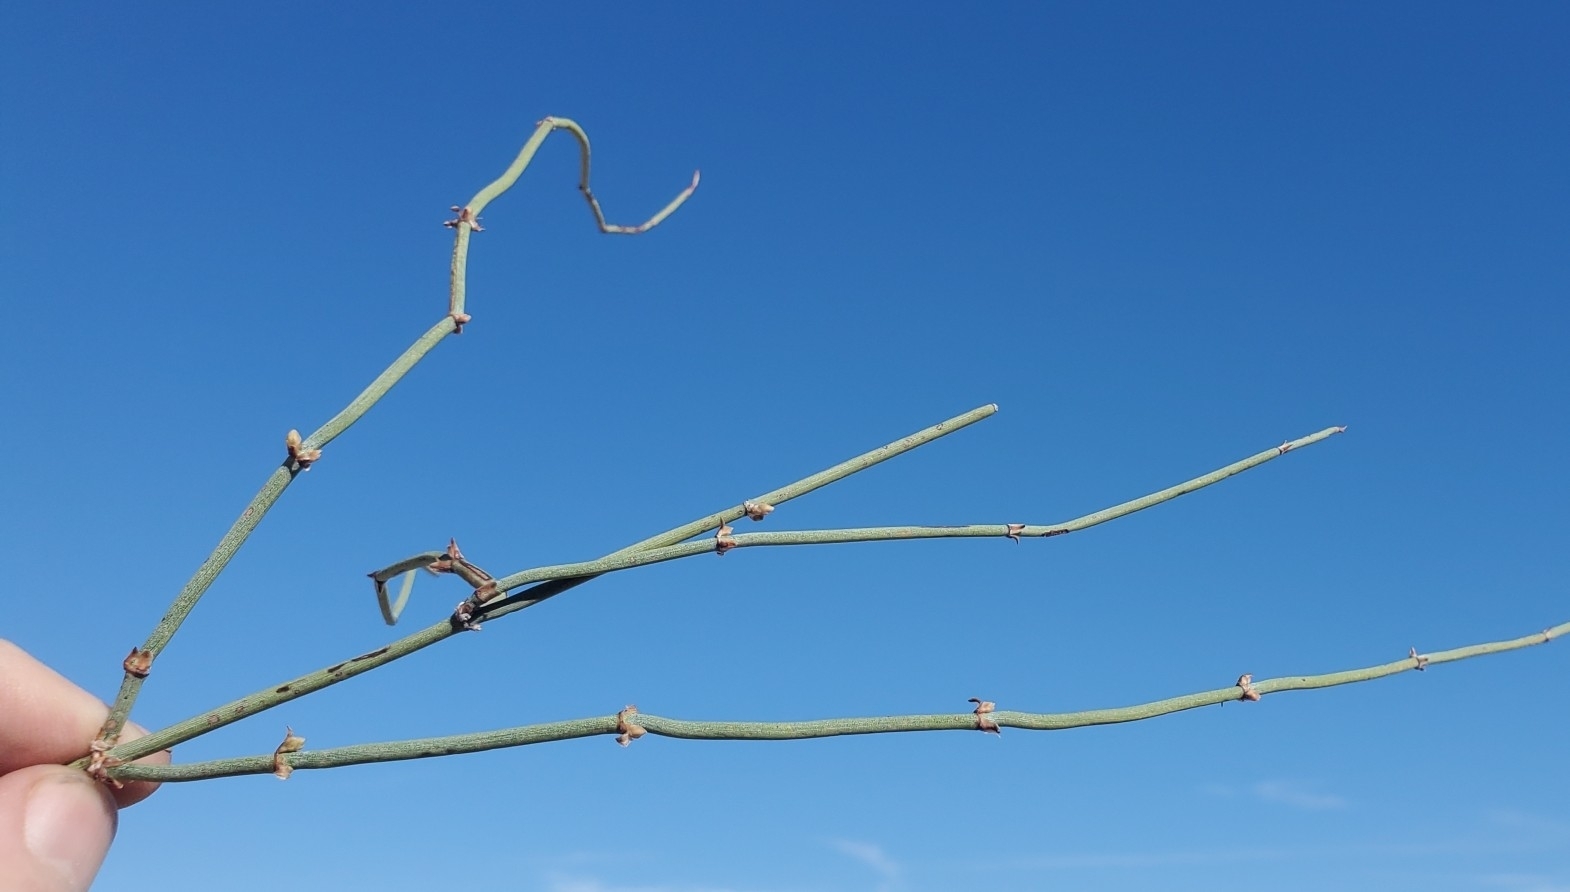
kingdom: Plantae
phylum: Tracheophyta
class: Gnetopsida
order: Ephedrales
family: Ephedraceae
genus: Ephedra
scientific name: Ephedra californica
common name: California ephedra
